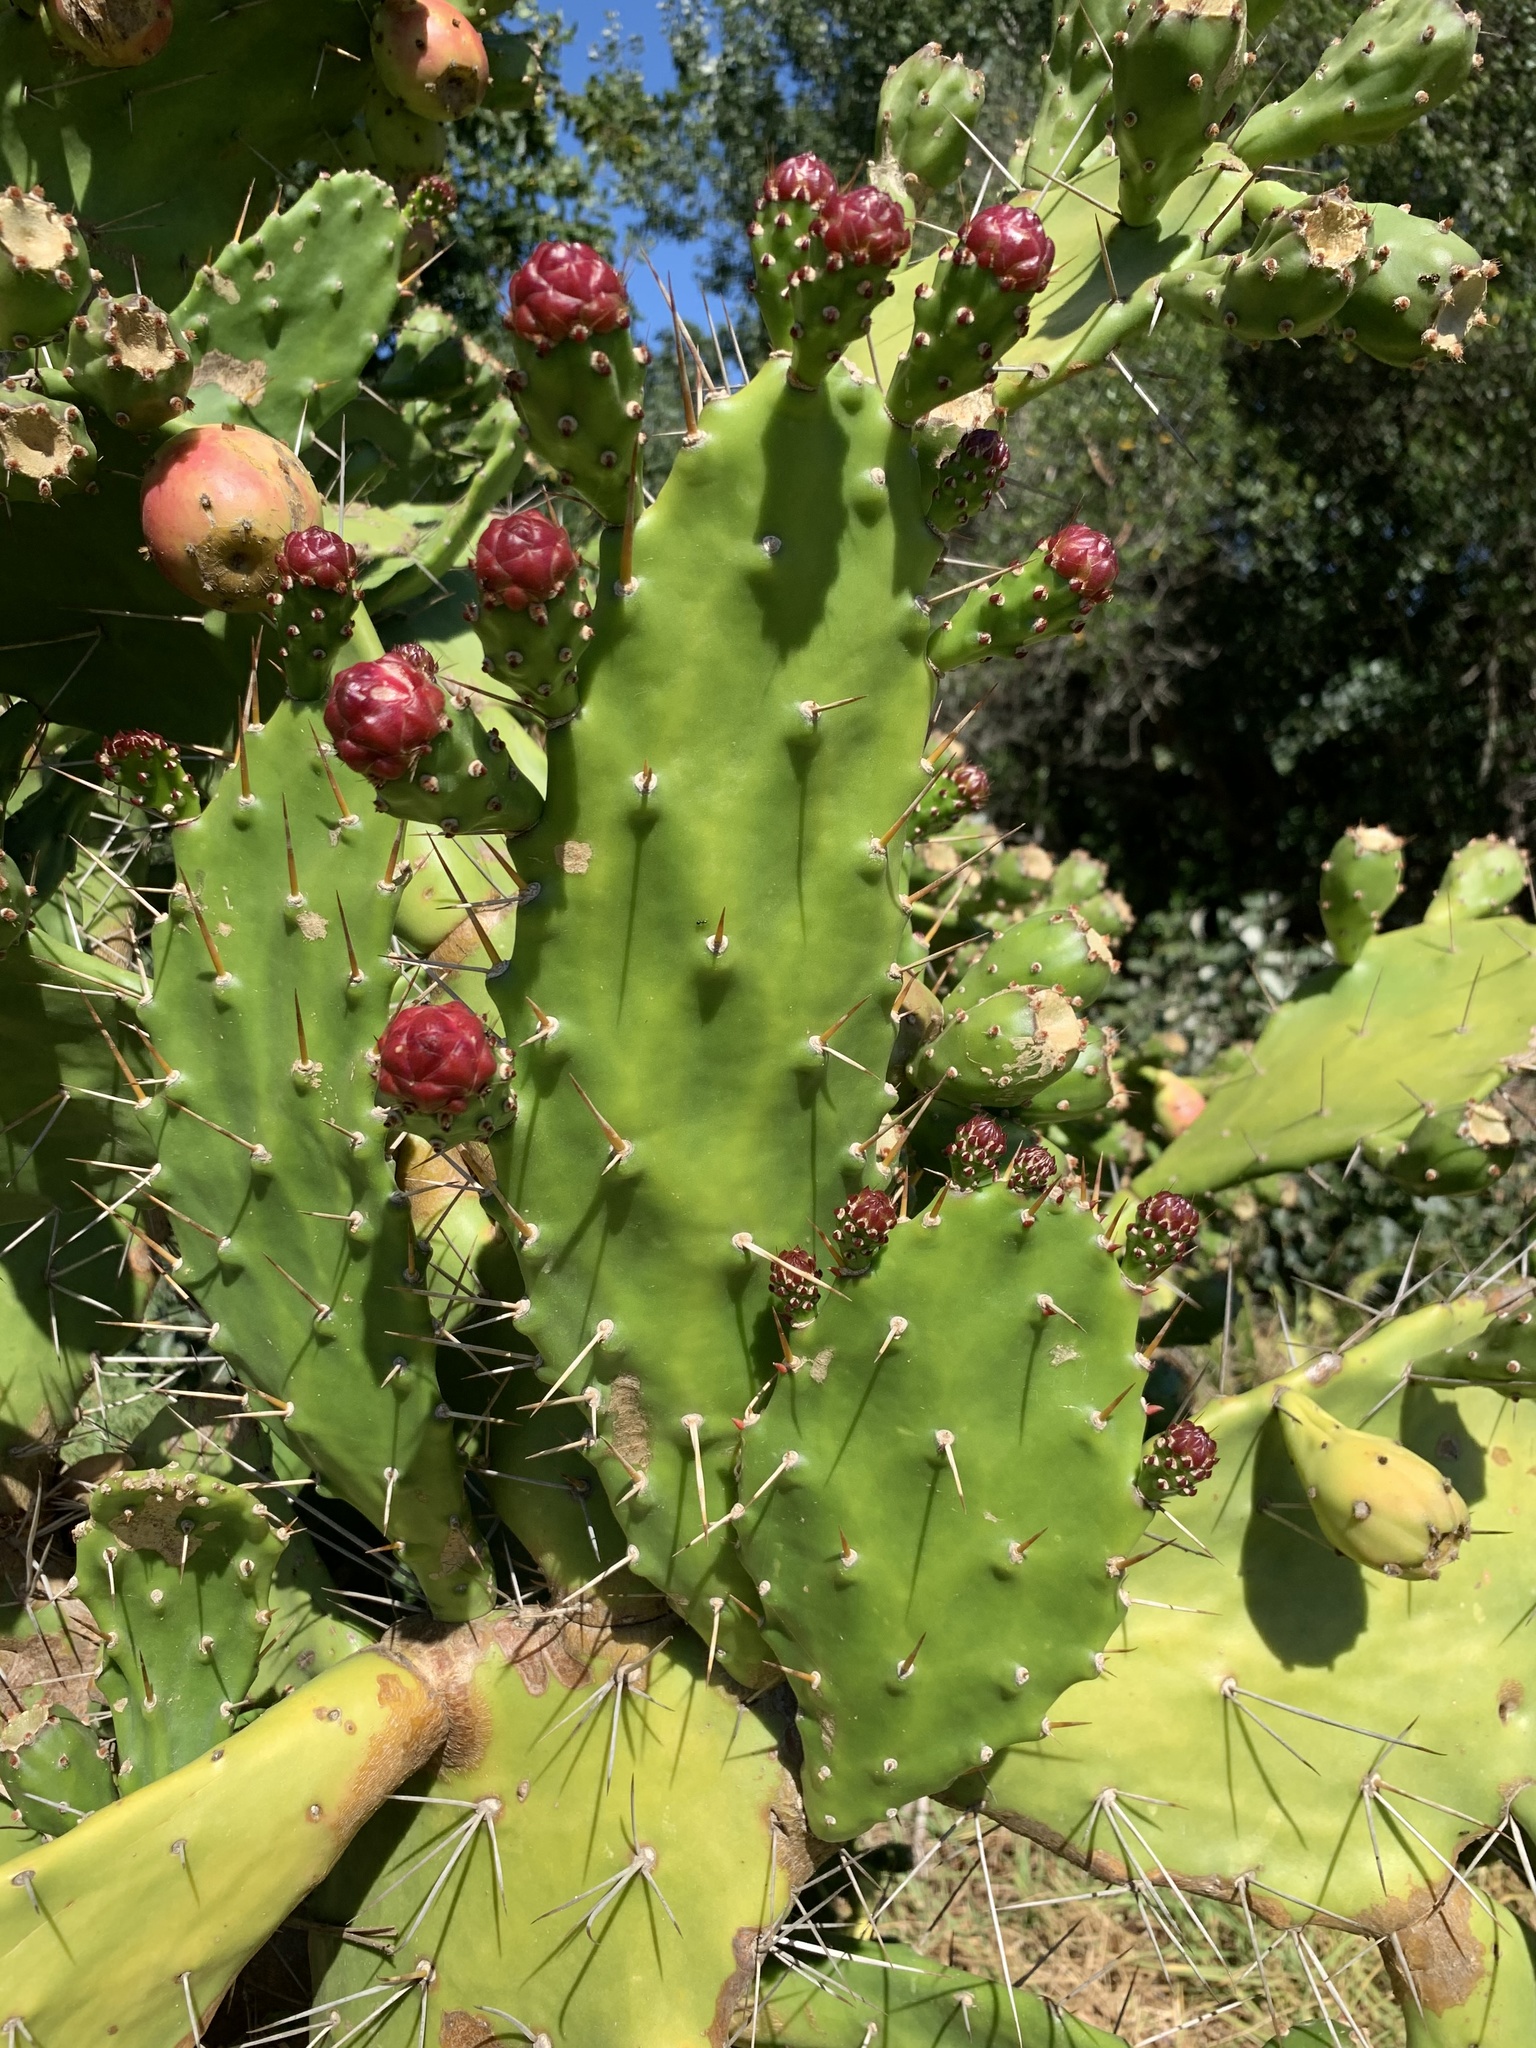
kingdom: Plantae
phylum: Tracheophyta
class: Magnoliopsida
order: Caryophyllales
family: Cactaceae
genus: Opuntia
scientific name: Opuntia monacantha
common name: Common pricklypear
